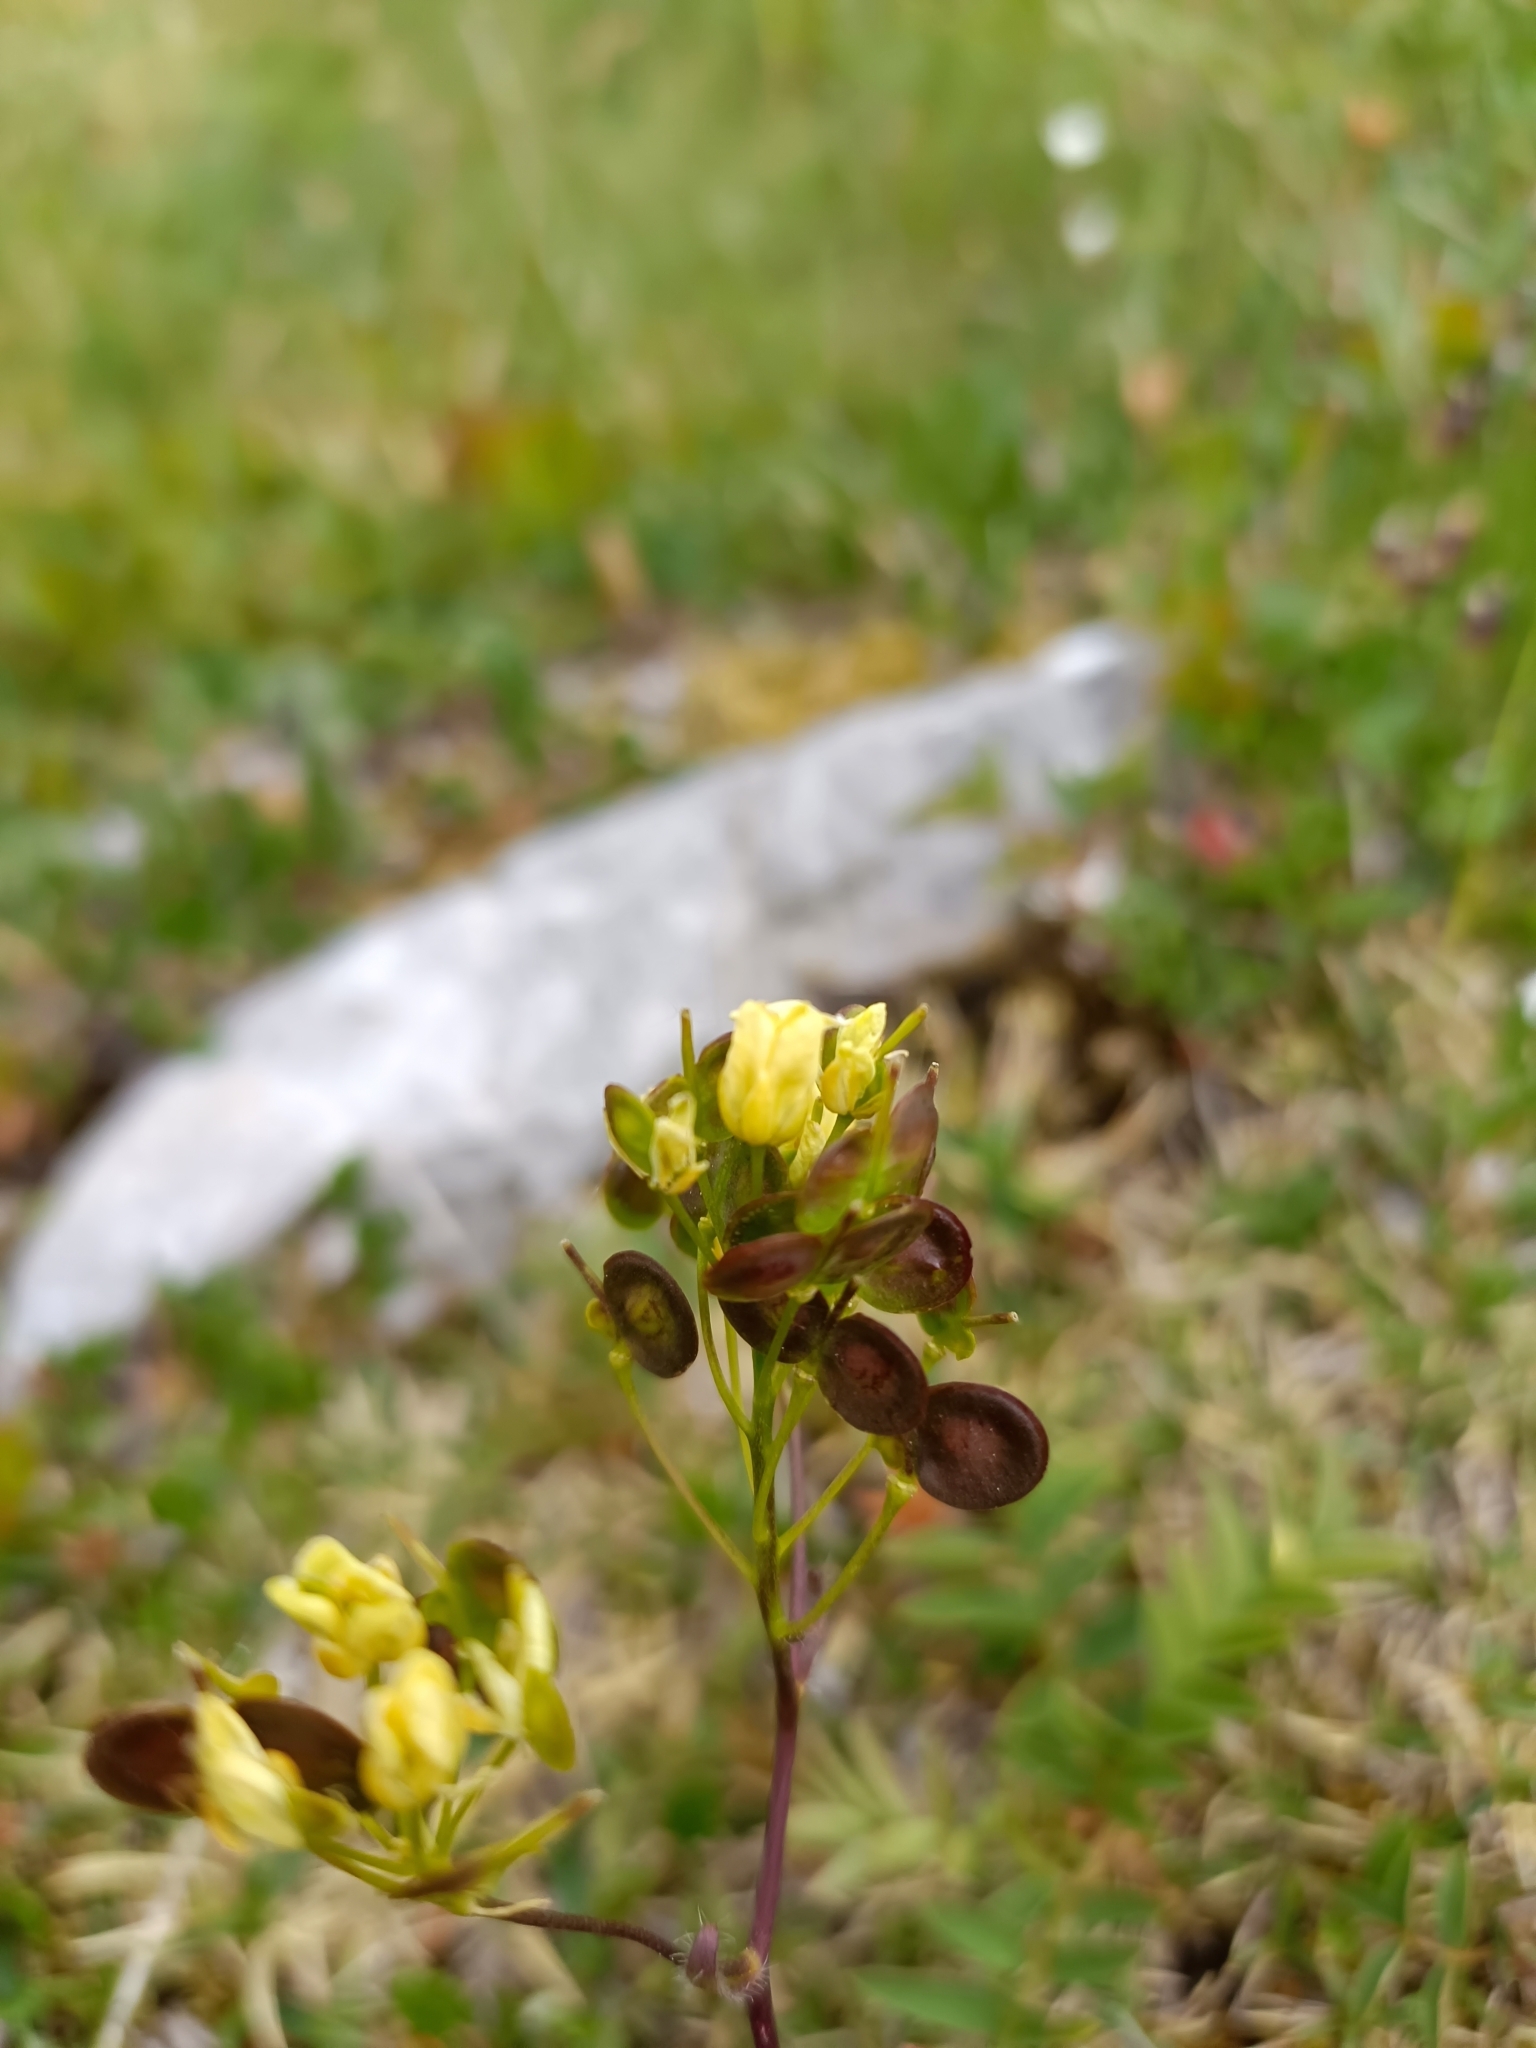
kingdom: Plantae
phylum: Tracheophyta
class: Magnoliopsida
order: Brassicales
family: Brassicaceae
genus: Biscutella
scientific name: Biscutella laevigata
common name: Buckler mustard
